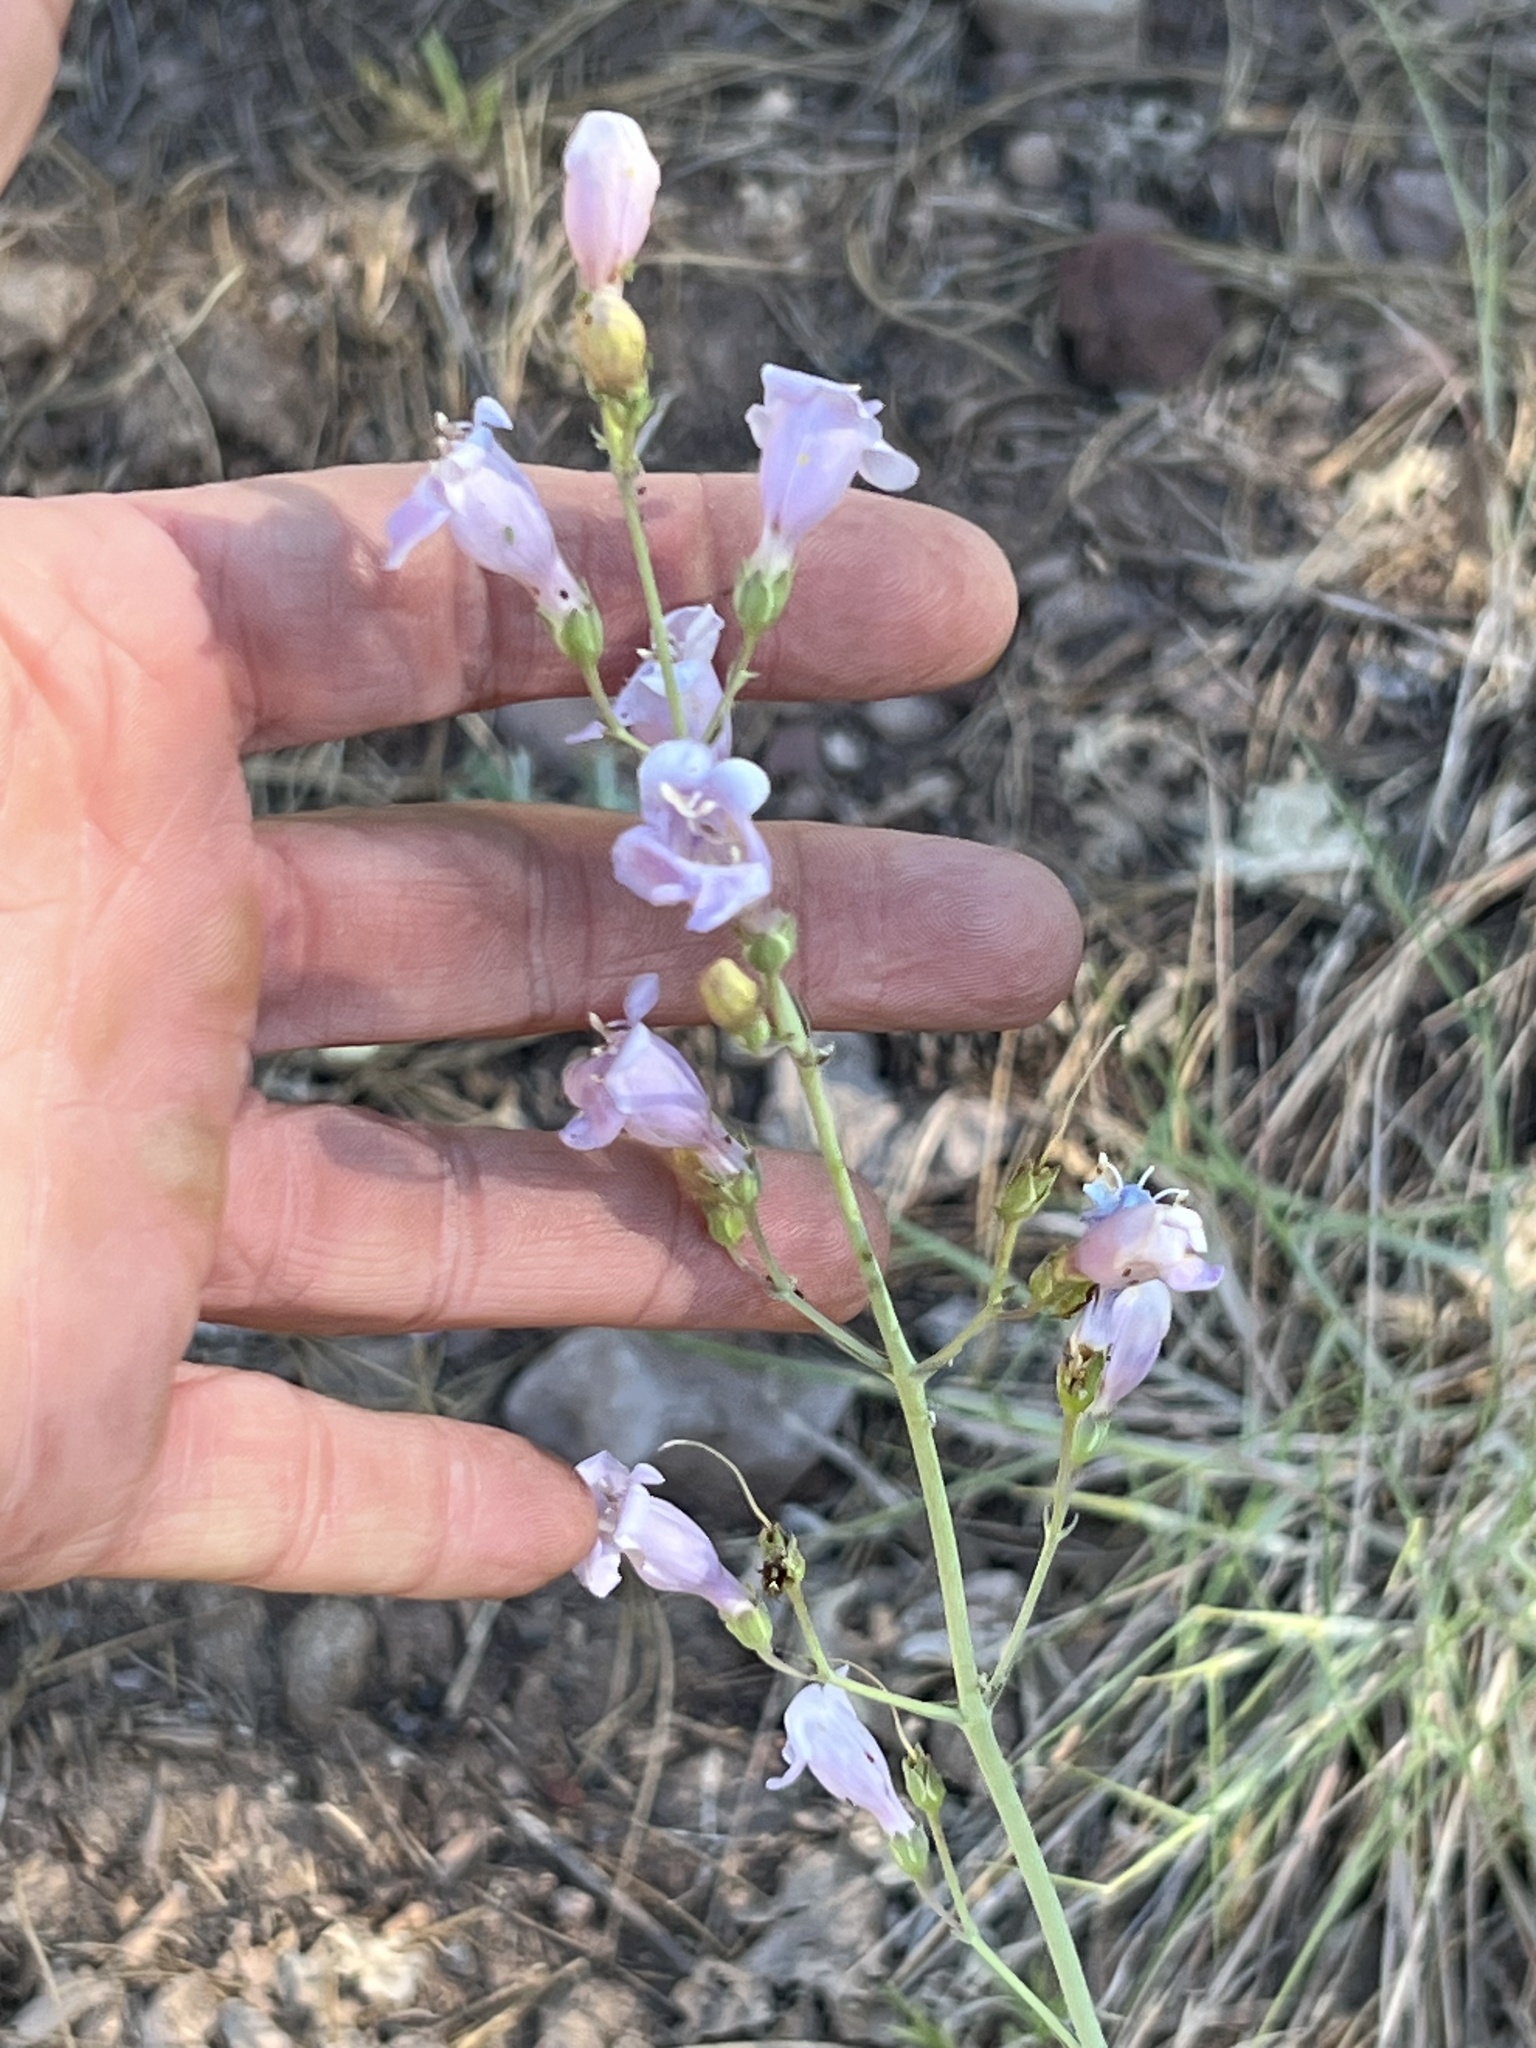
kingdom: Plantae
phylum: Tracheophyta
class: Magnoliopsida
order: Lamiales
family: Plantaginaceae
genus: Penstemon
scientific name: Penstemon linarioides
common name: Siler's penstemon
